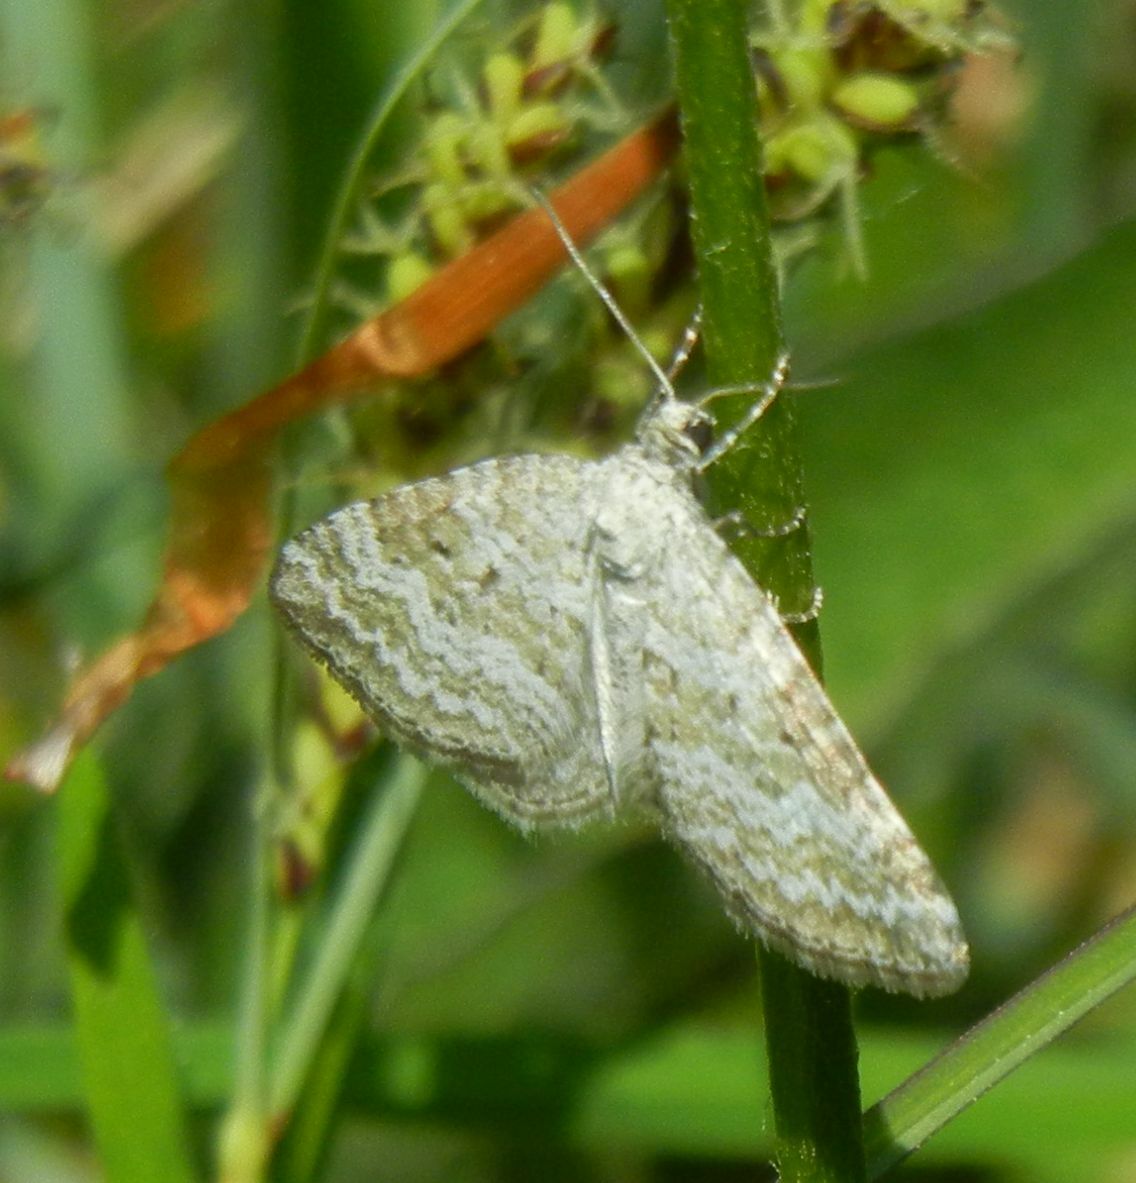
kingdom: Animalia
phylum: Arthropoda
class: Insecta
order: Lepidoptera
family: Geometridae
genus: Perizoma
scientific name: Perizoma albulata
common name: Grass rivulet
